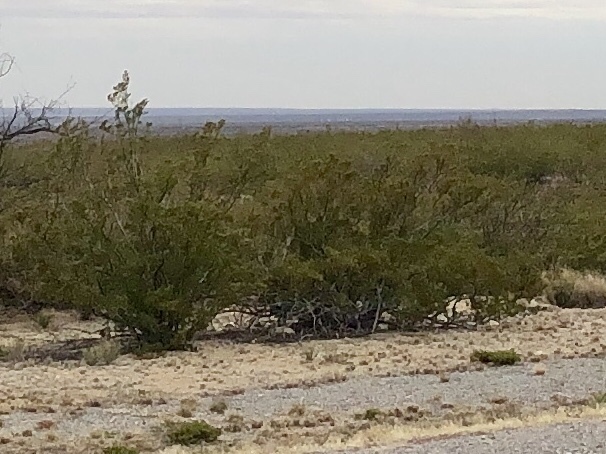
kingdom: Plantae
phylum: Tracheophyta
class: Magnoliopsida
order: Zygophyllales
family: Zygophyllaceae
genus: Larrea
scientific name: Larrea tridentata
